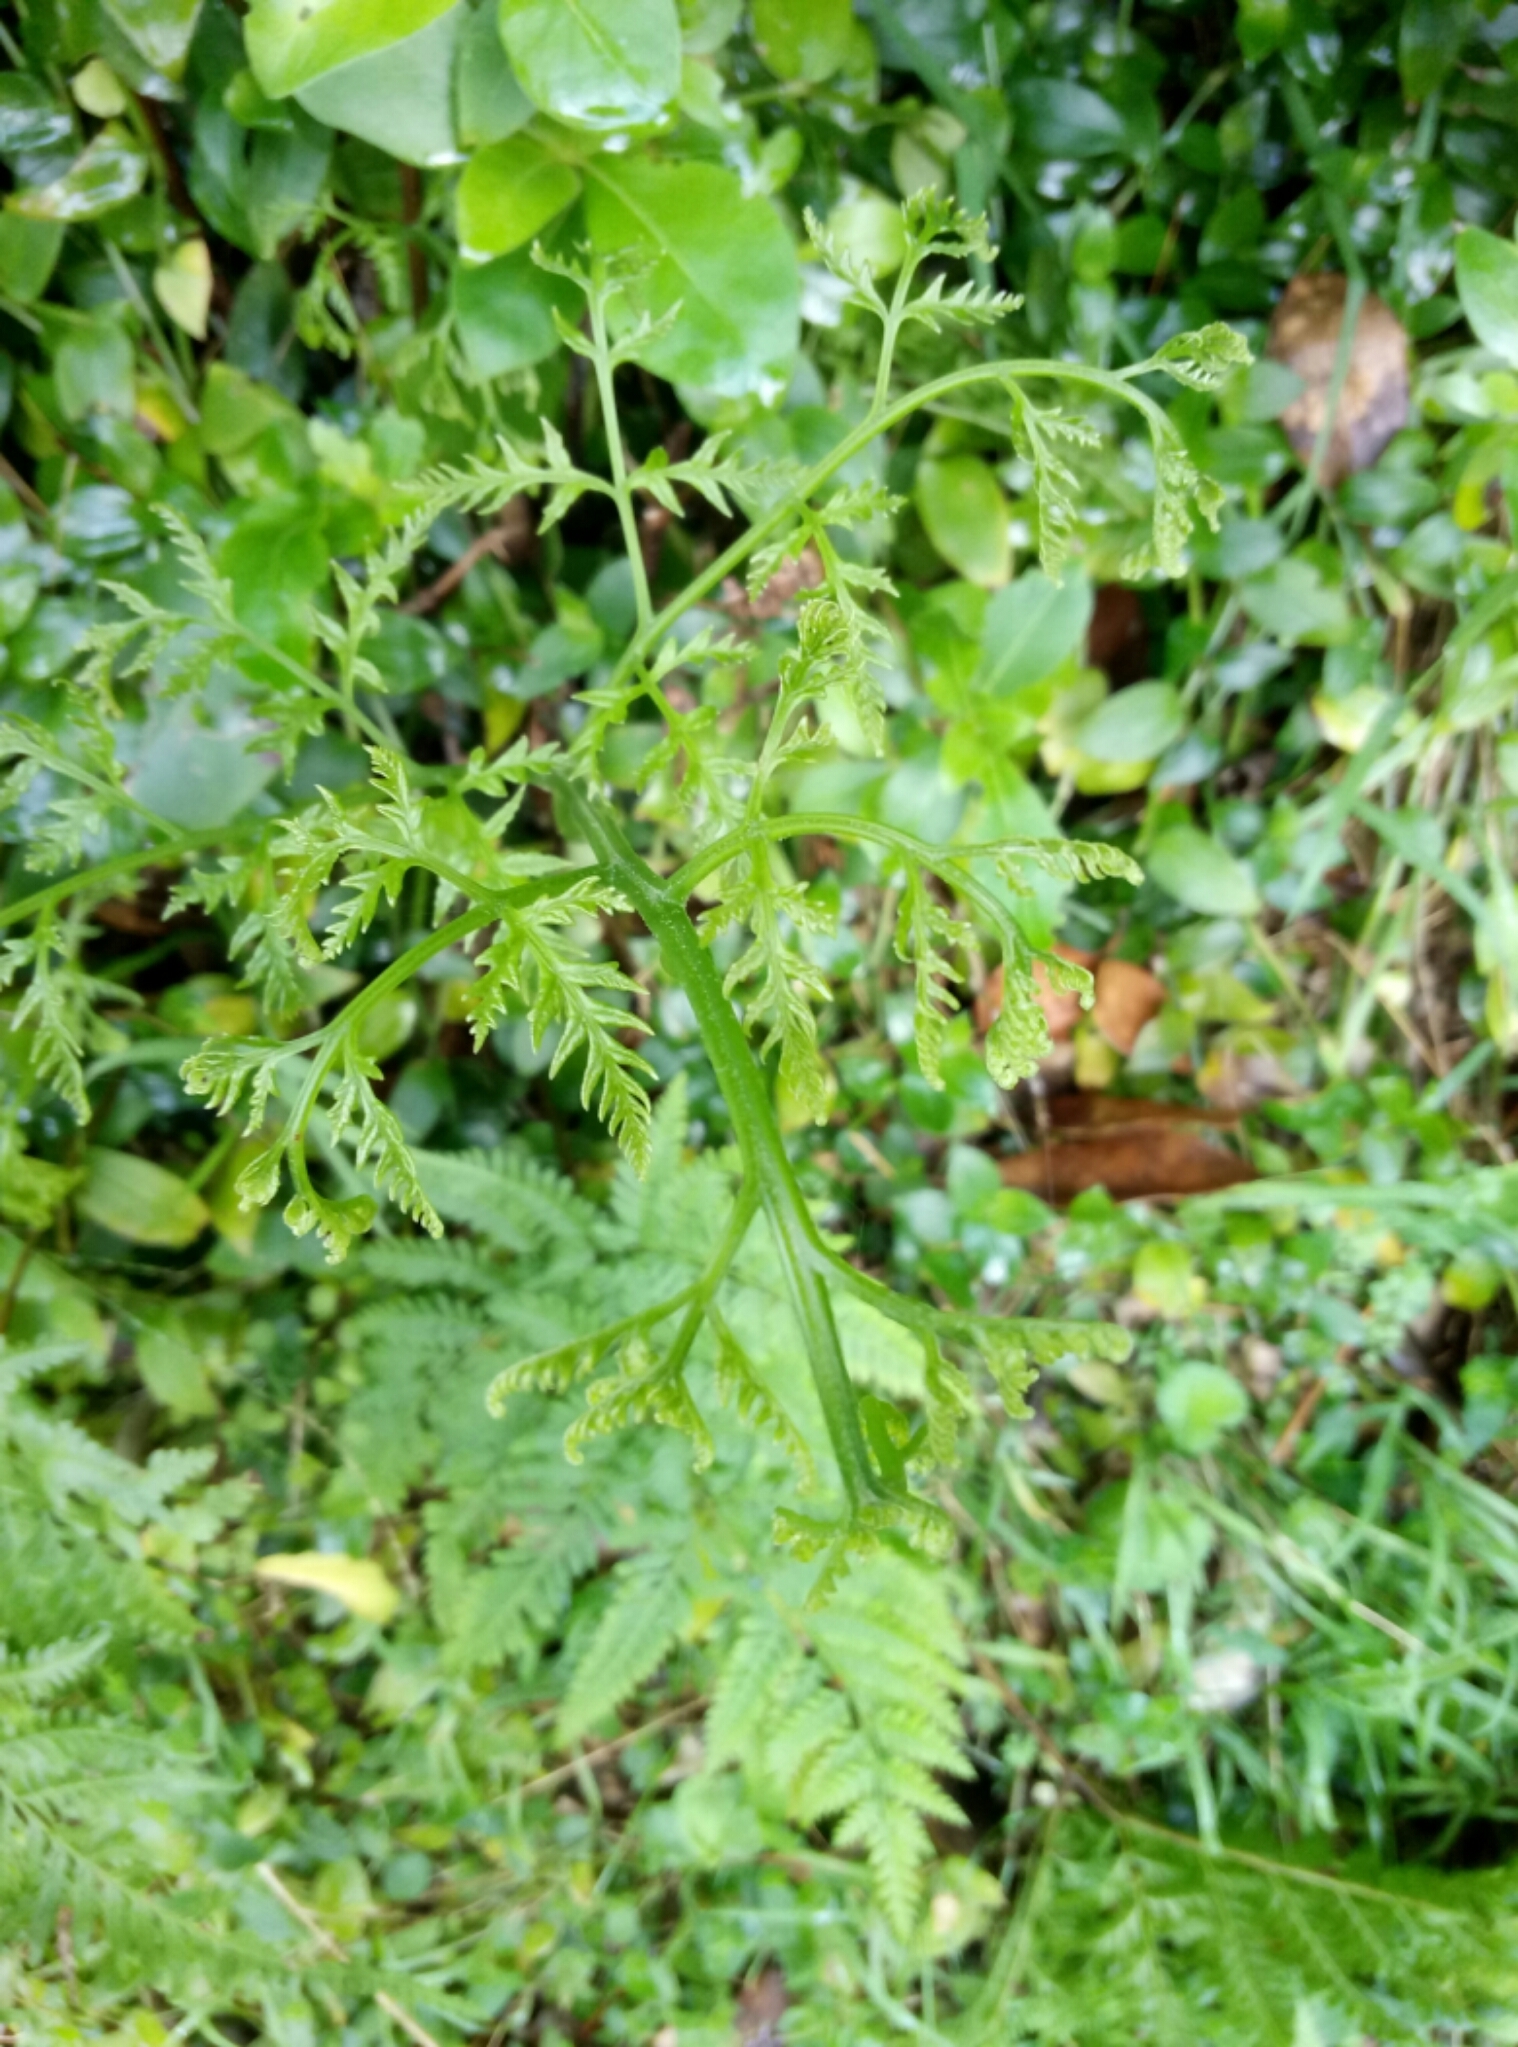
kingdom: Plantae
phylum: Tracheophyta
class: Polypodiopsida
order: Polypodiales
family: Pteridaceae
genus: Pteris
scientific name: Pteris tremula
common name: Australian brake
